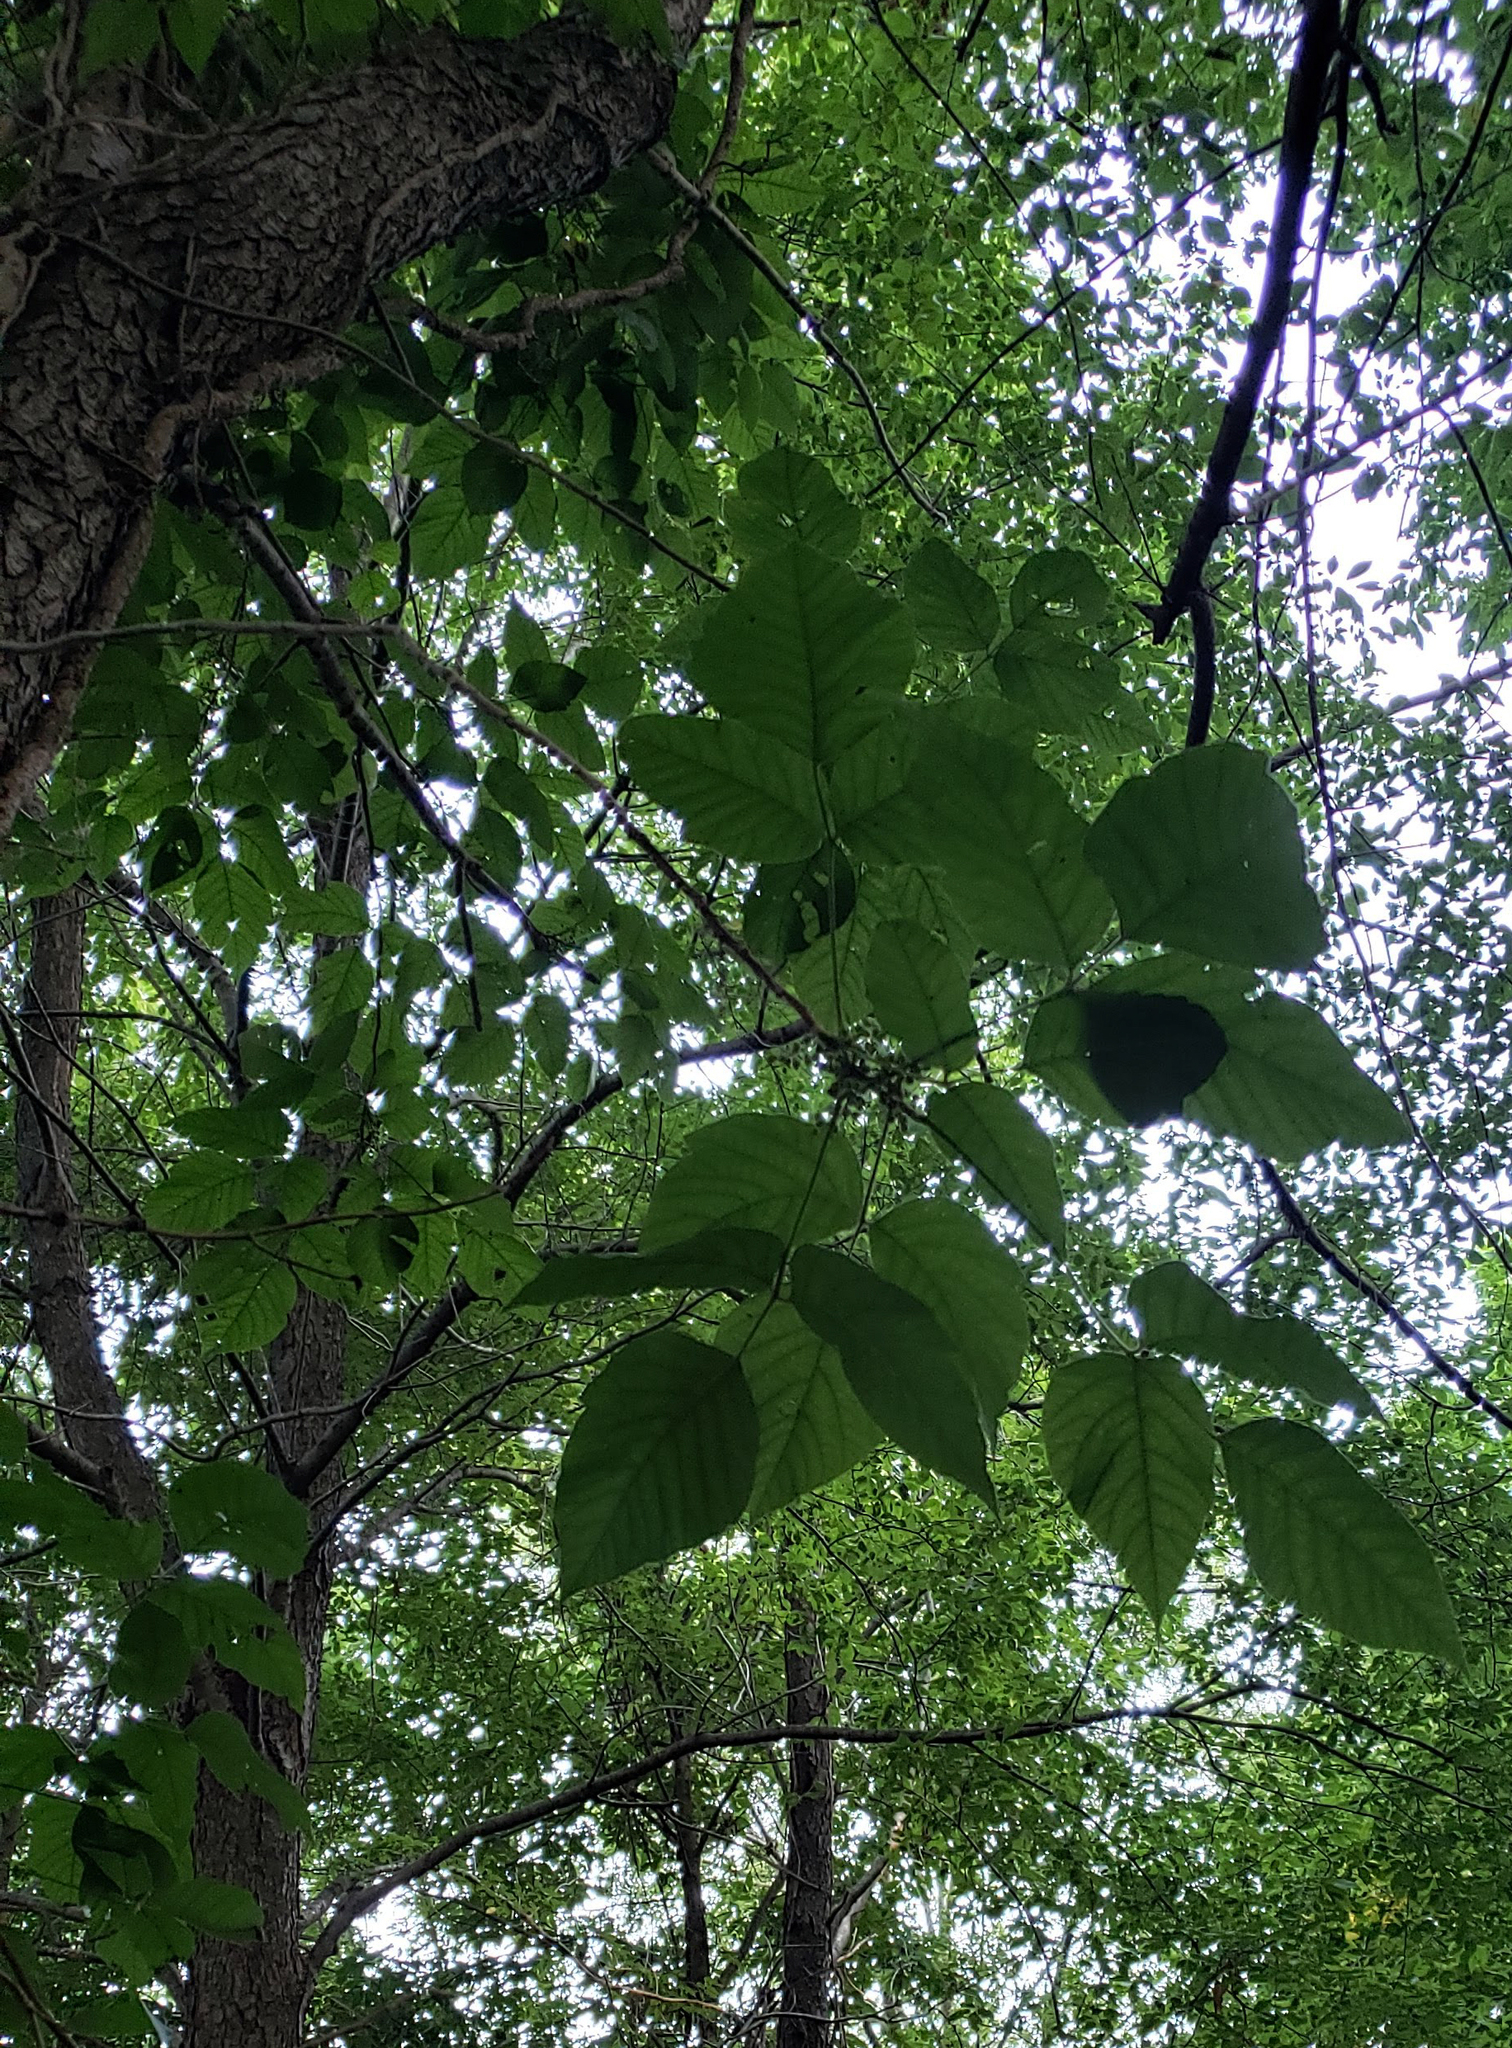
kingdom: Plantae
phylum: Tracheophyta
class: Magnoliopsida
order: Sapindales
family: Anacardiaceae
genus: Toxicodendron
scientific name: Toxicodendron radicans
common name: Poison ivy
